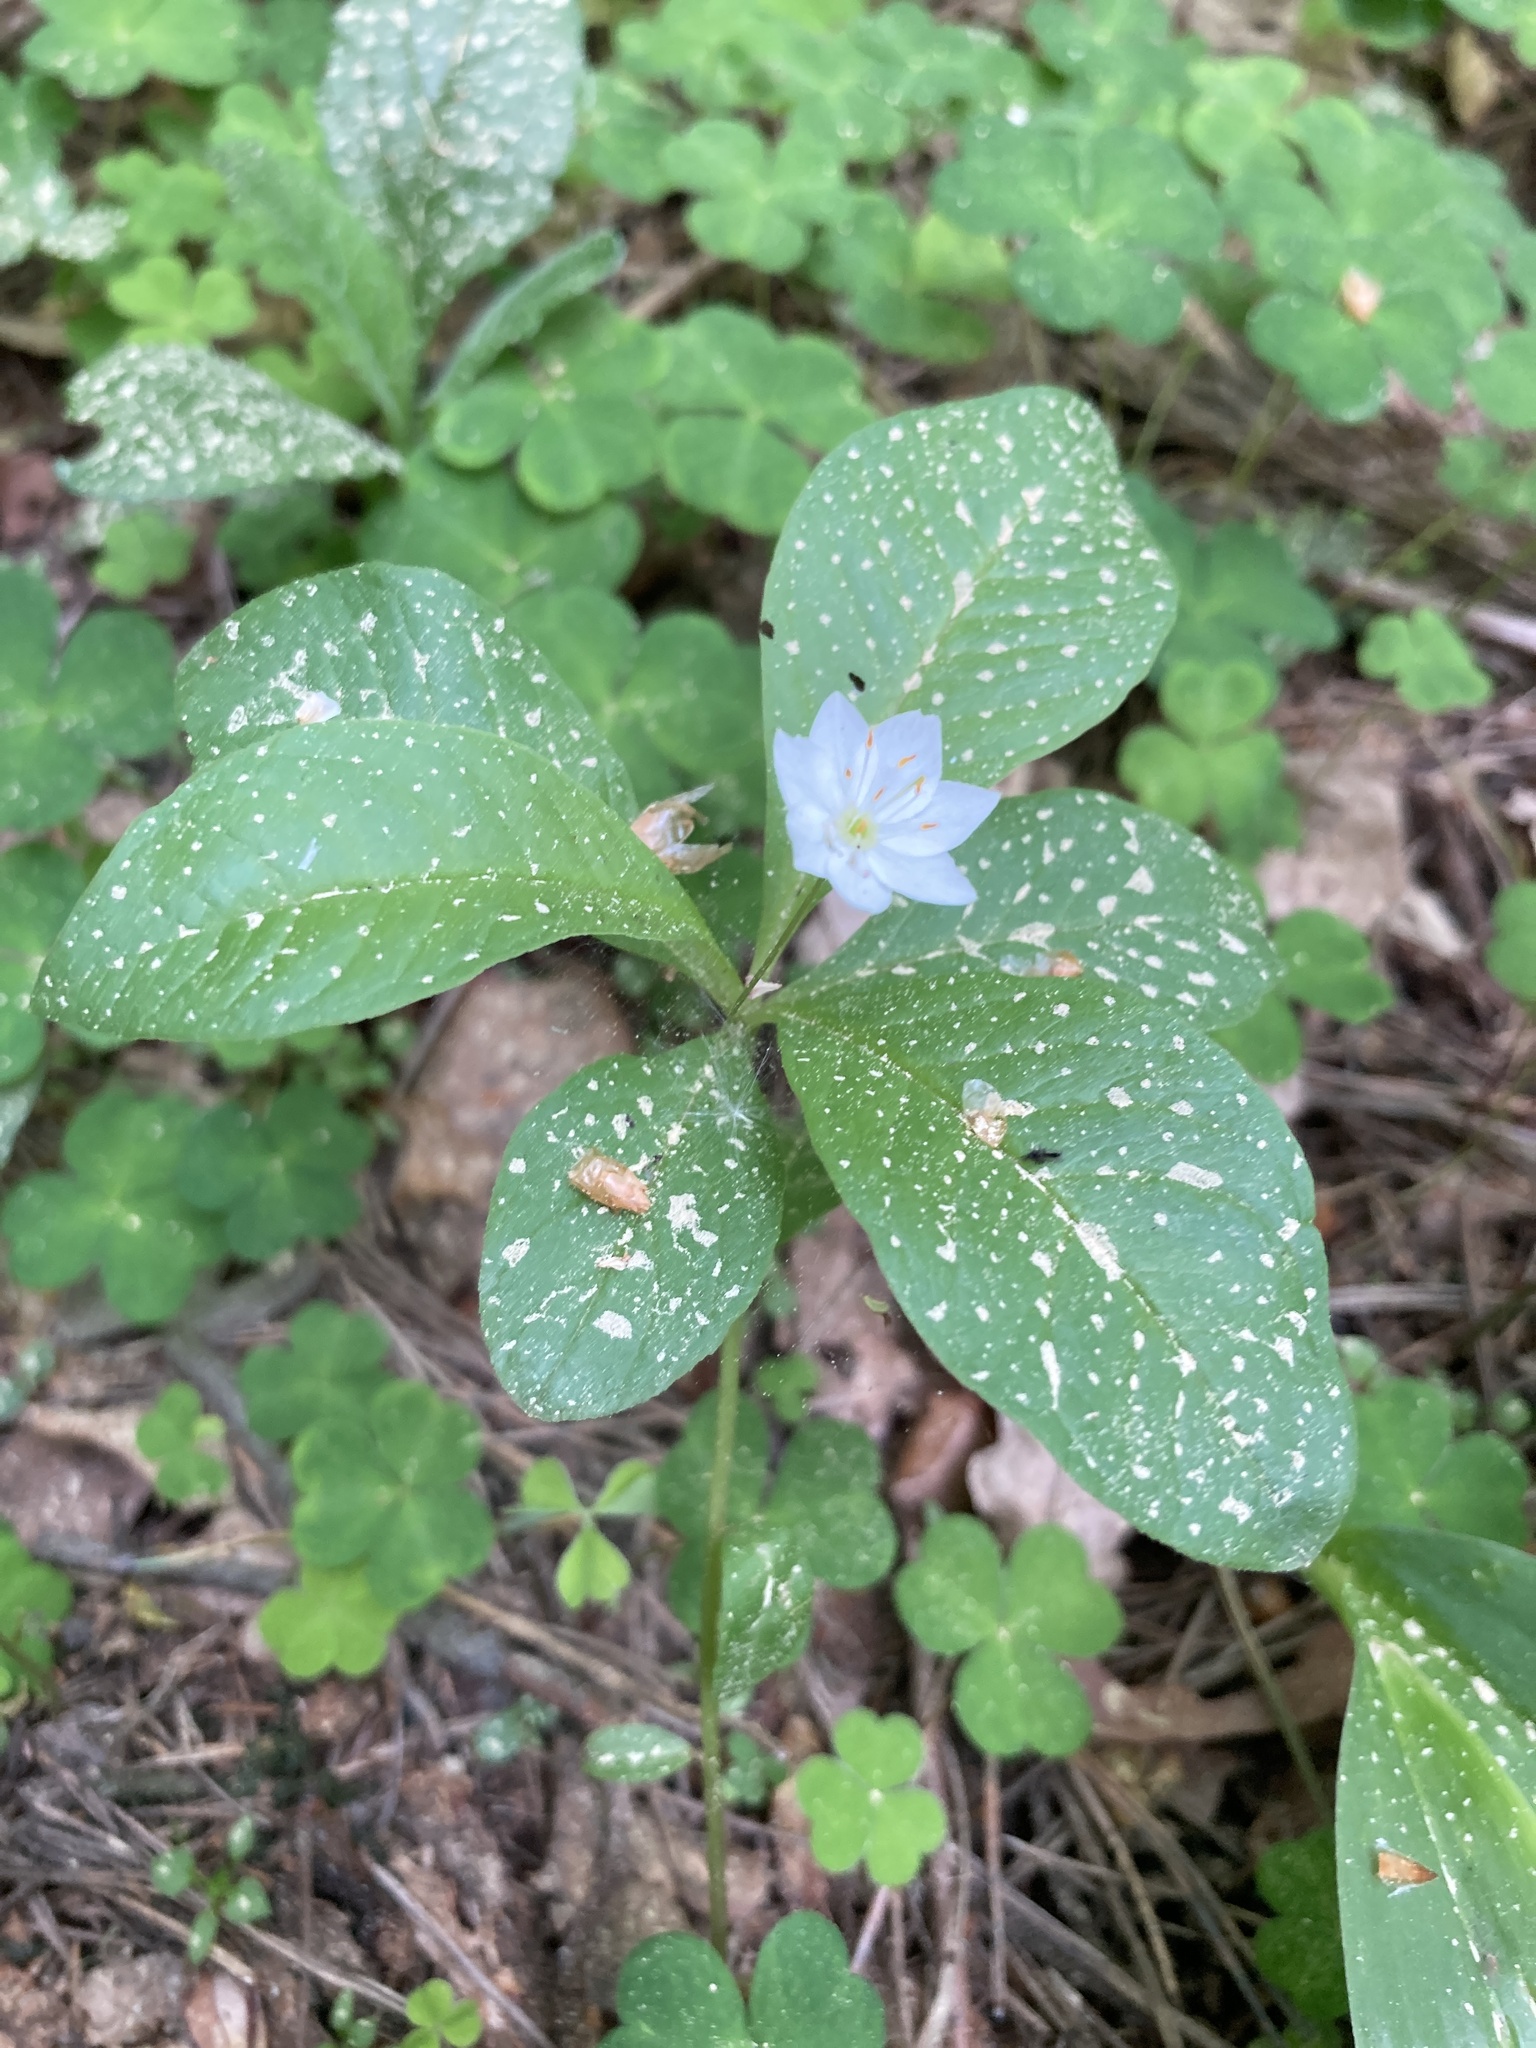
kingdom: Plantae
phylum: Tracheophyta
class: Magnoliopsida
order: Ericales
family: Primulaceae
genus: Lysimachia
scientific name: Lysimachia europaea
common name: Arctic starflower
